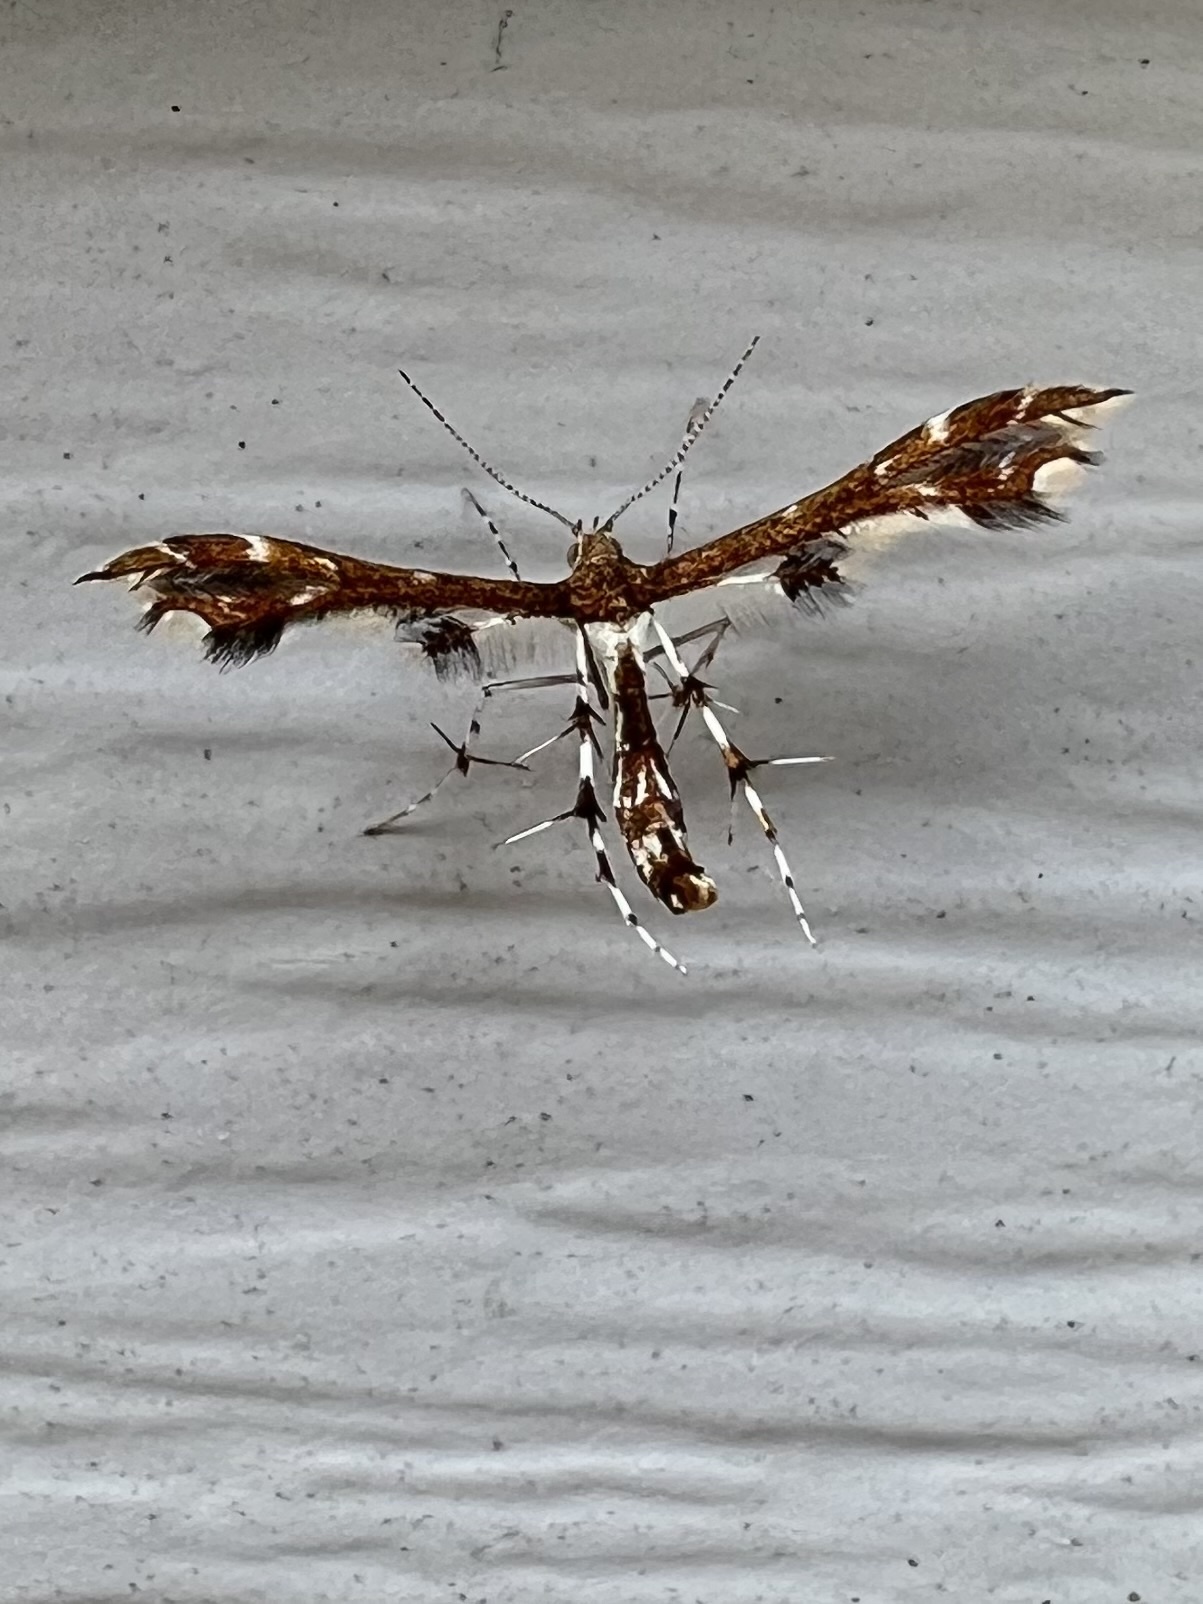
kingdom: Animalia
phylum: Arthropoda
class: Insecta
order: Lepidoptera
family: Pterophoridae
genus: Geina
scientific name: Geina
